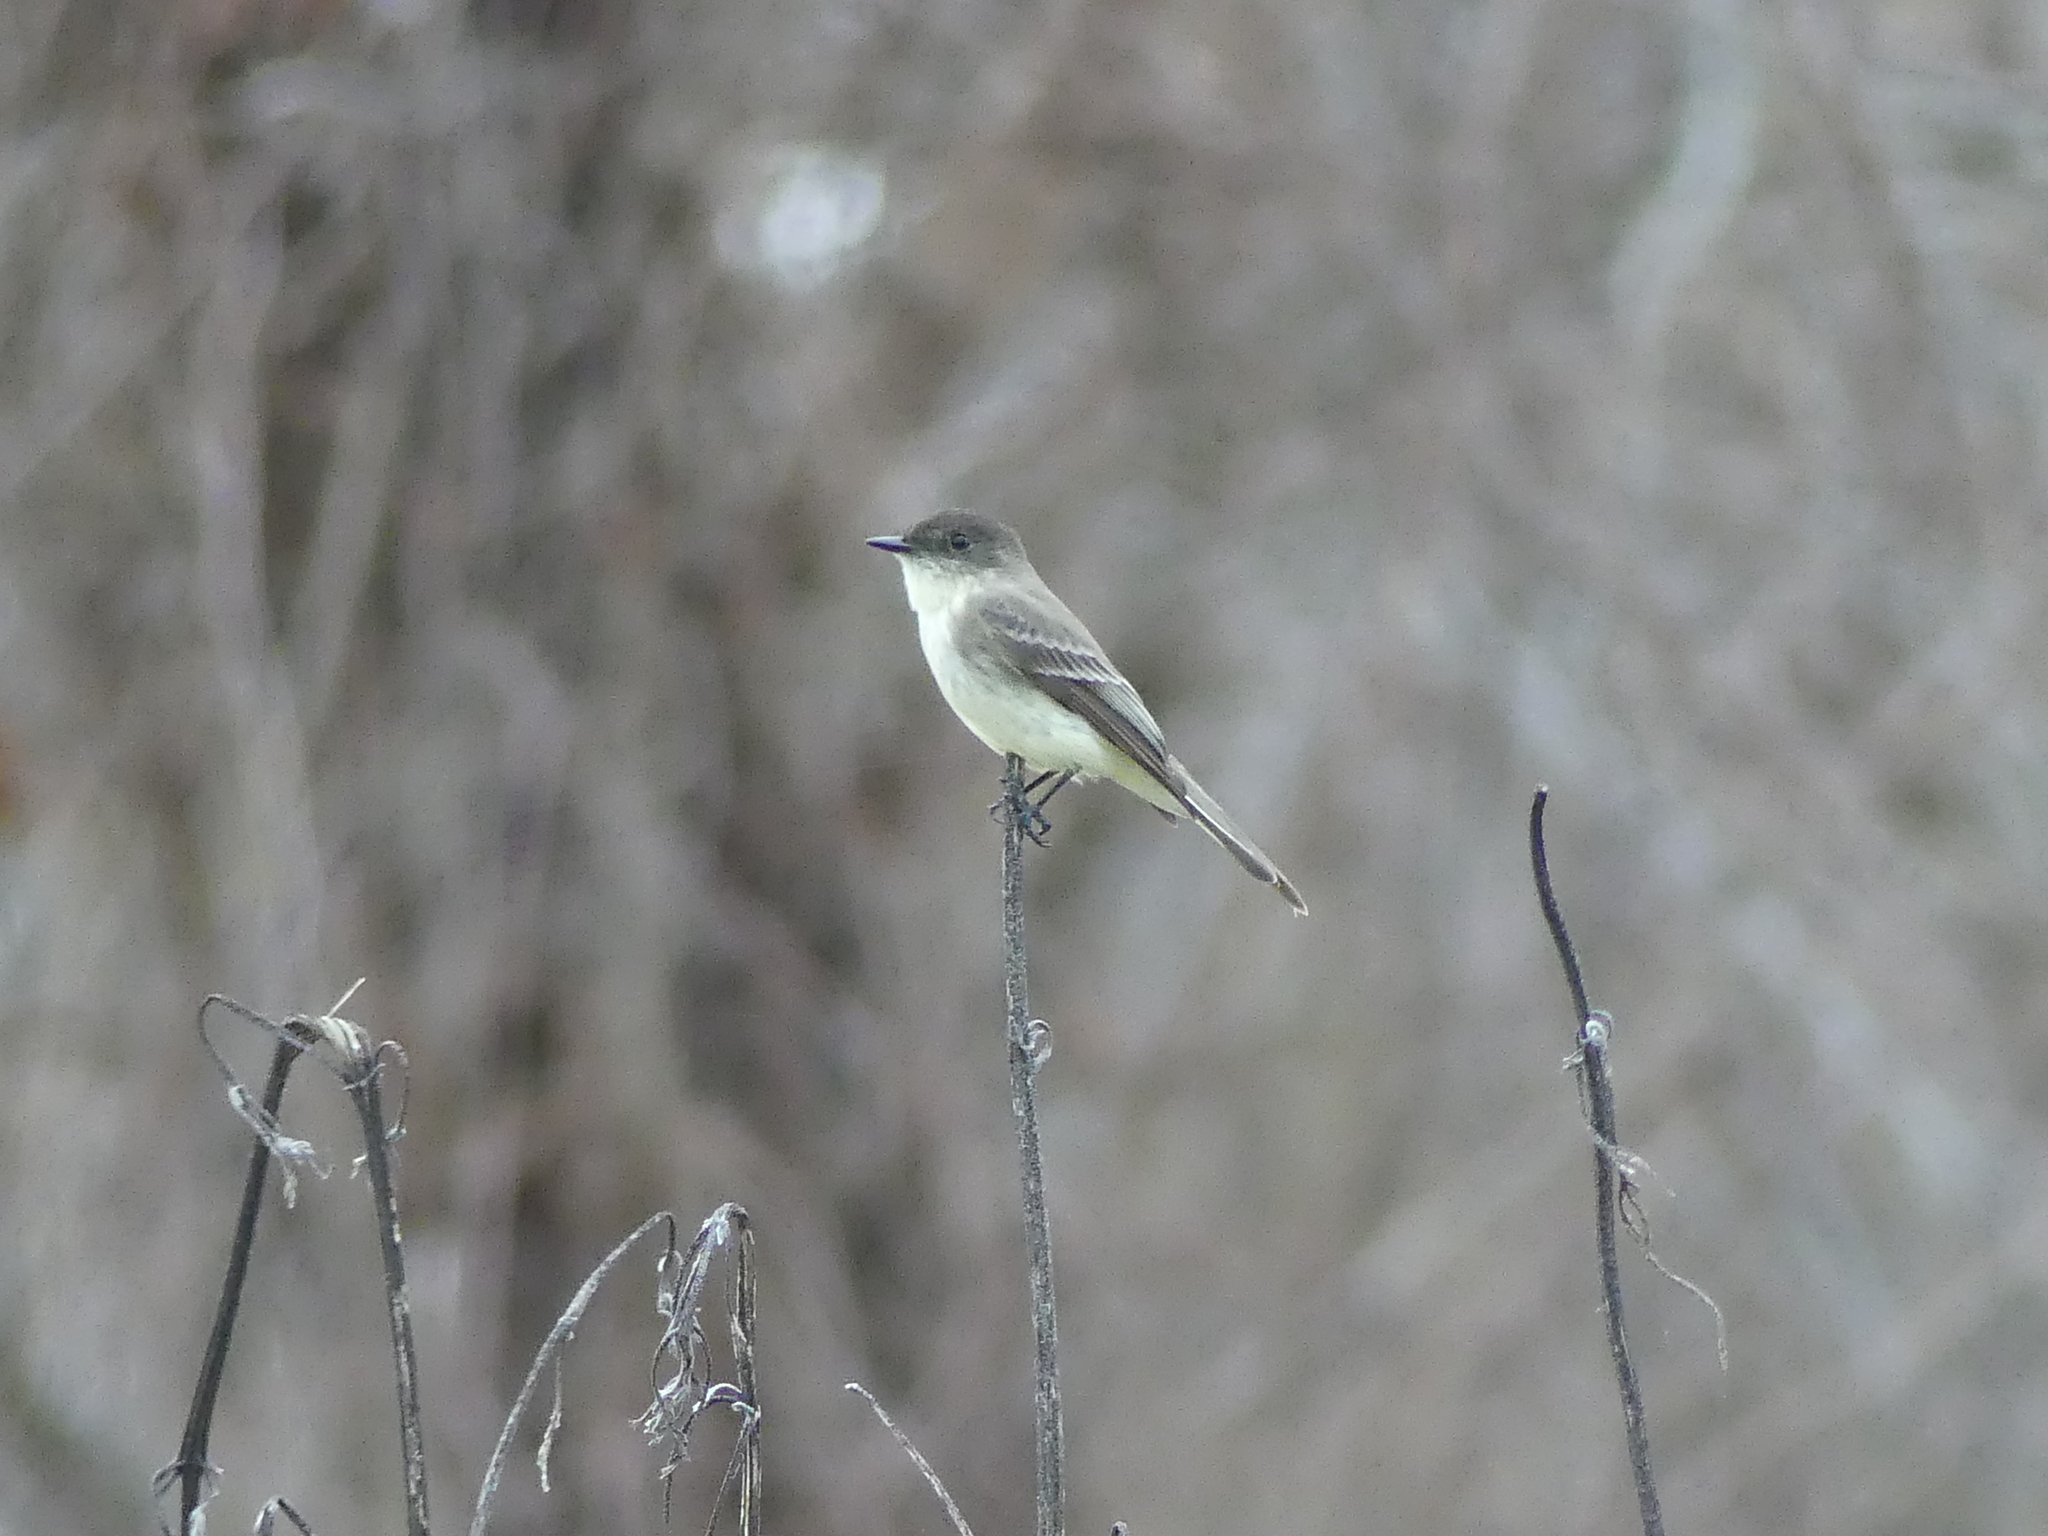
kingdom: Animalia
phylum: Chordata
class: Aves
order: Passeriformes
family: Tyrannidae
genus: Sayornis
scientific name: Sayornis phoebe
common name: Eastern phoebe
